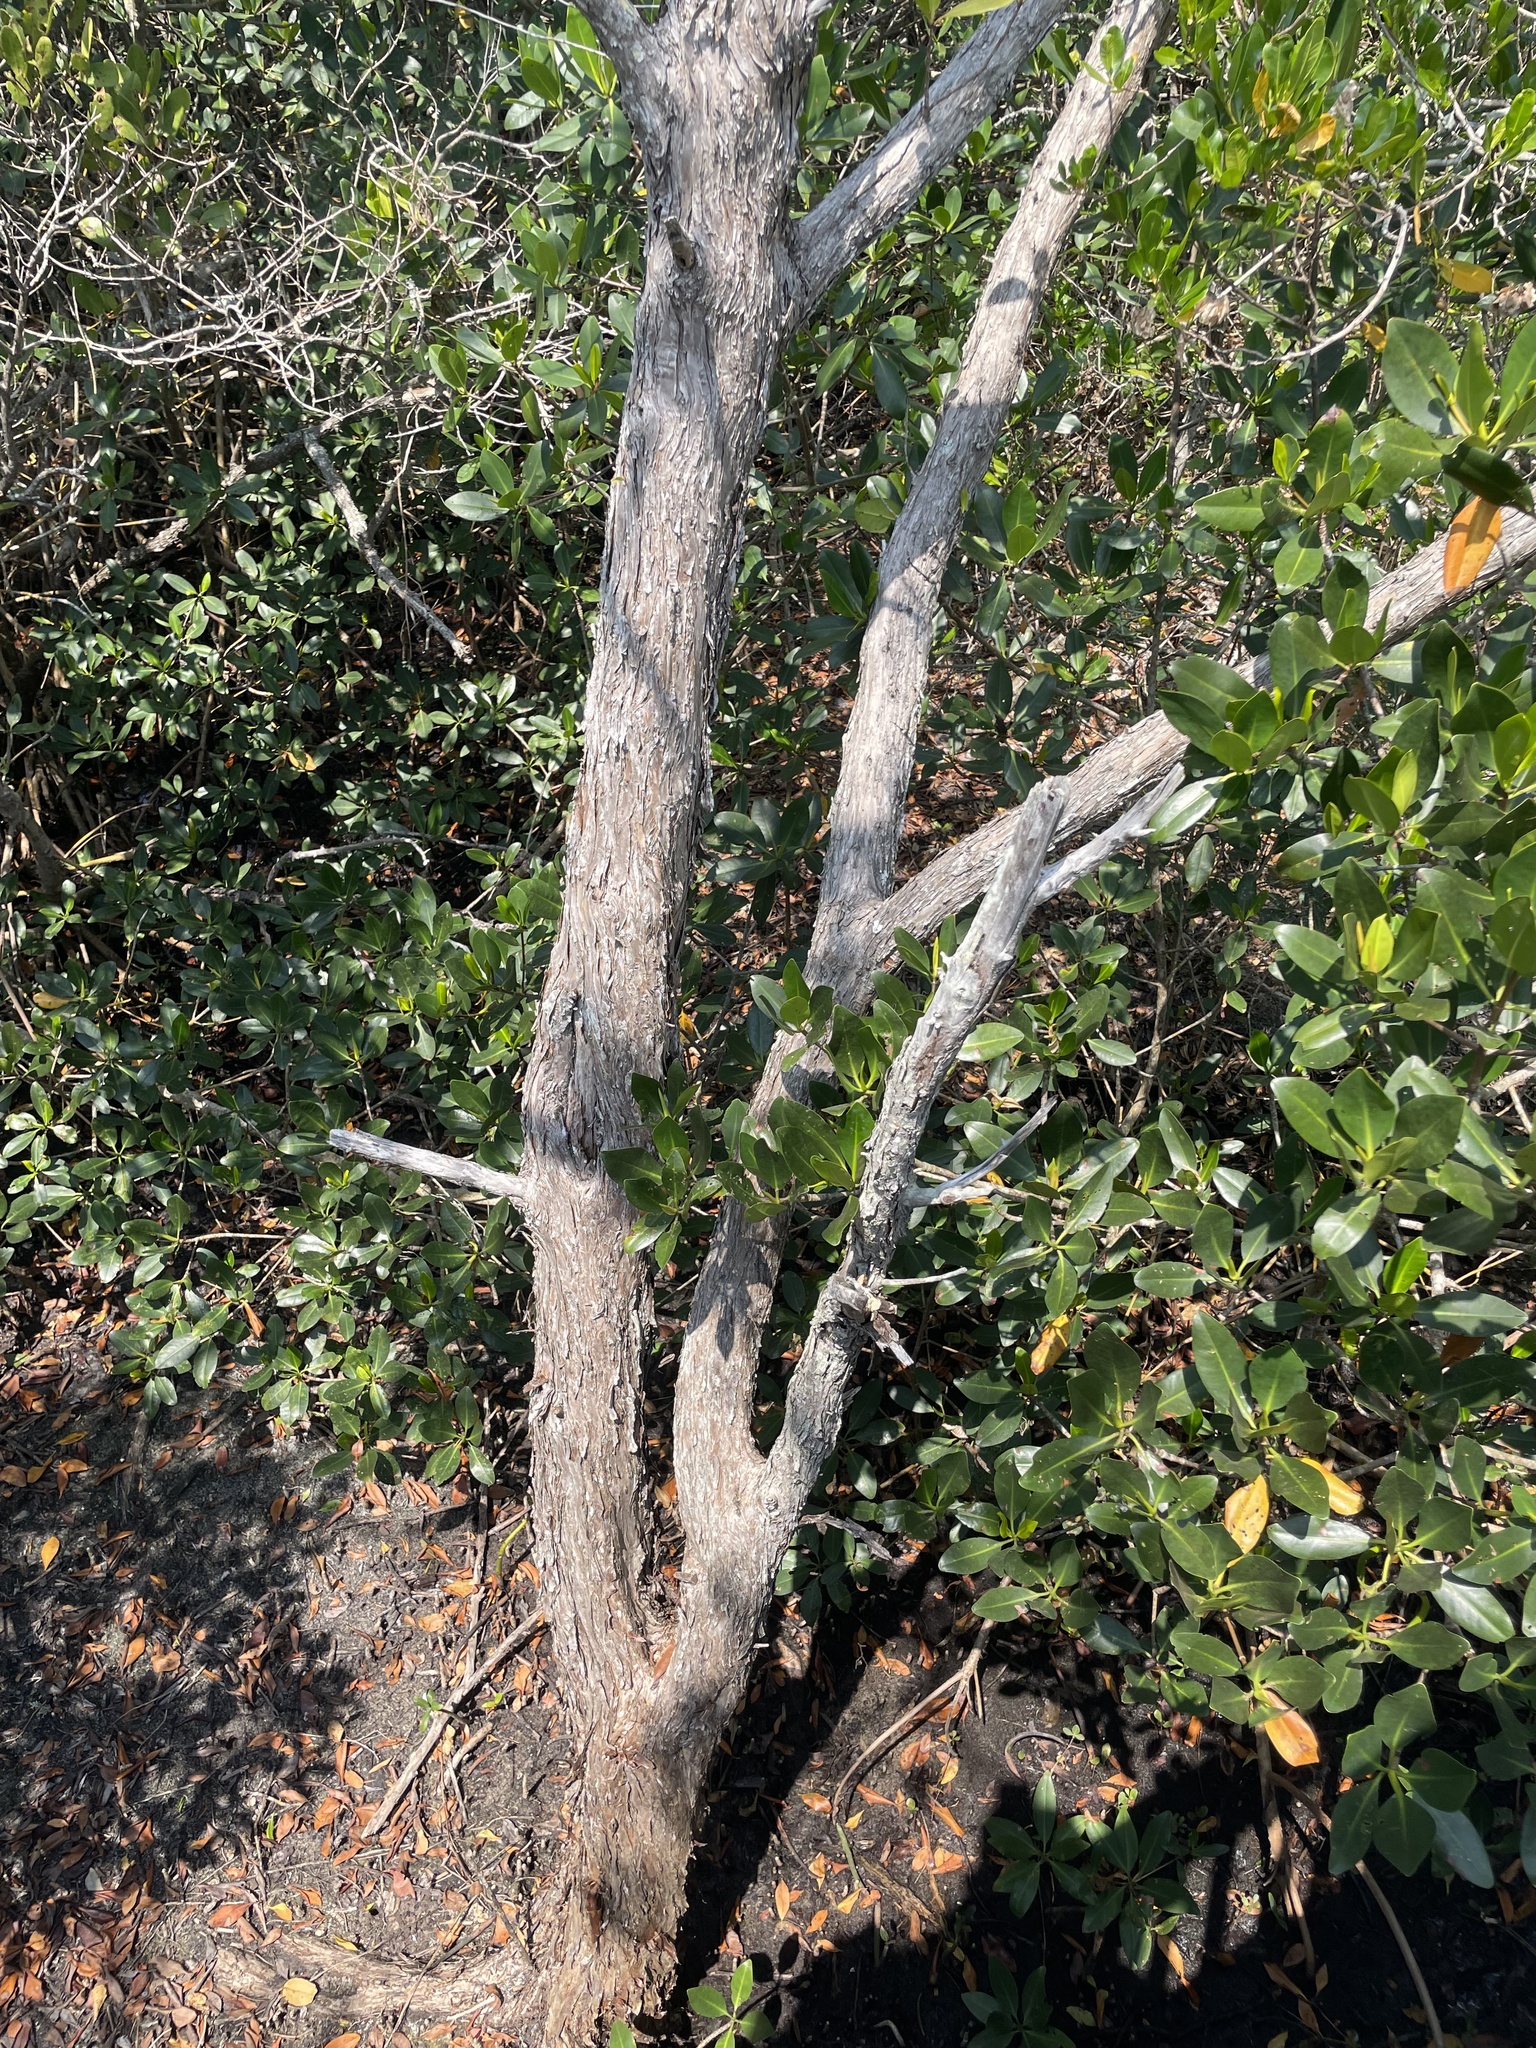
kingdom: Plantae
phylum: Tracheophyta
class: Magnoliopsida
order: Myrtales
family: Combretaceae
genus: Conocarpus
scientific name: Conocarpus erectus
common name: Button mangrove
